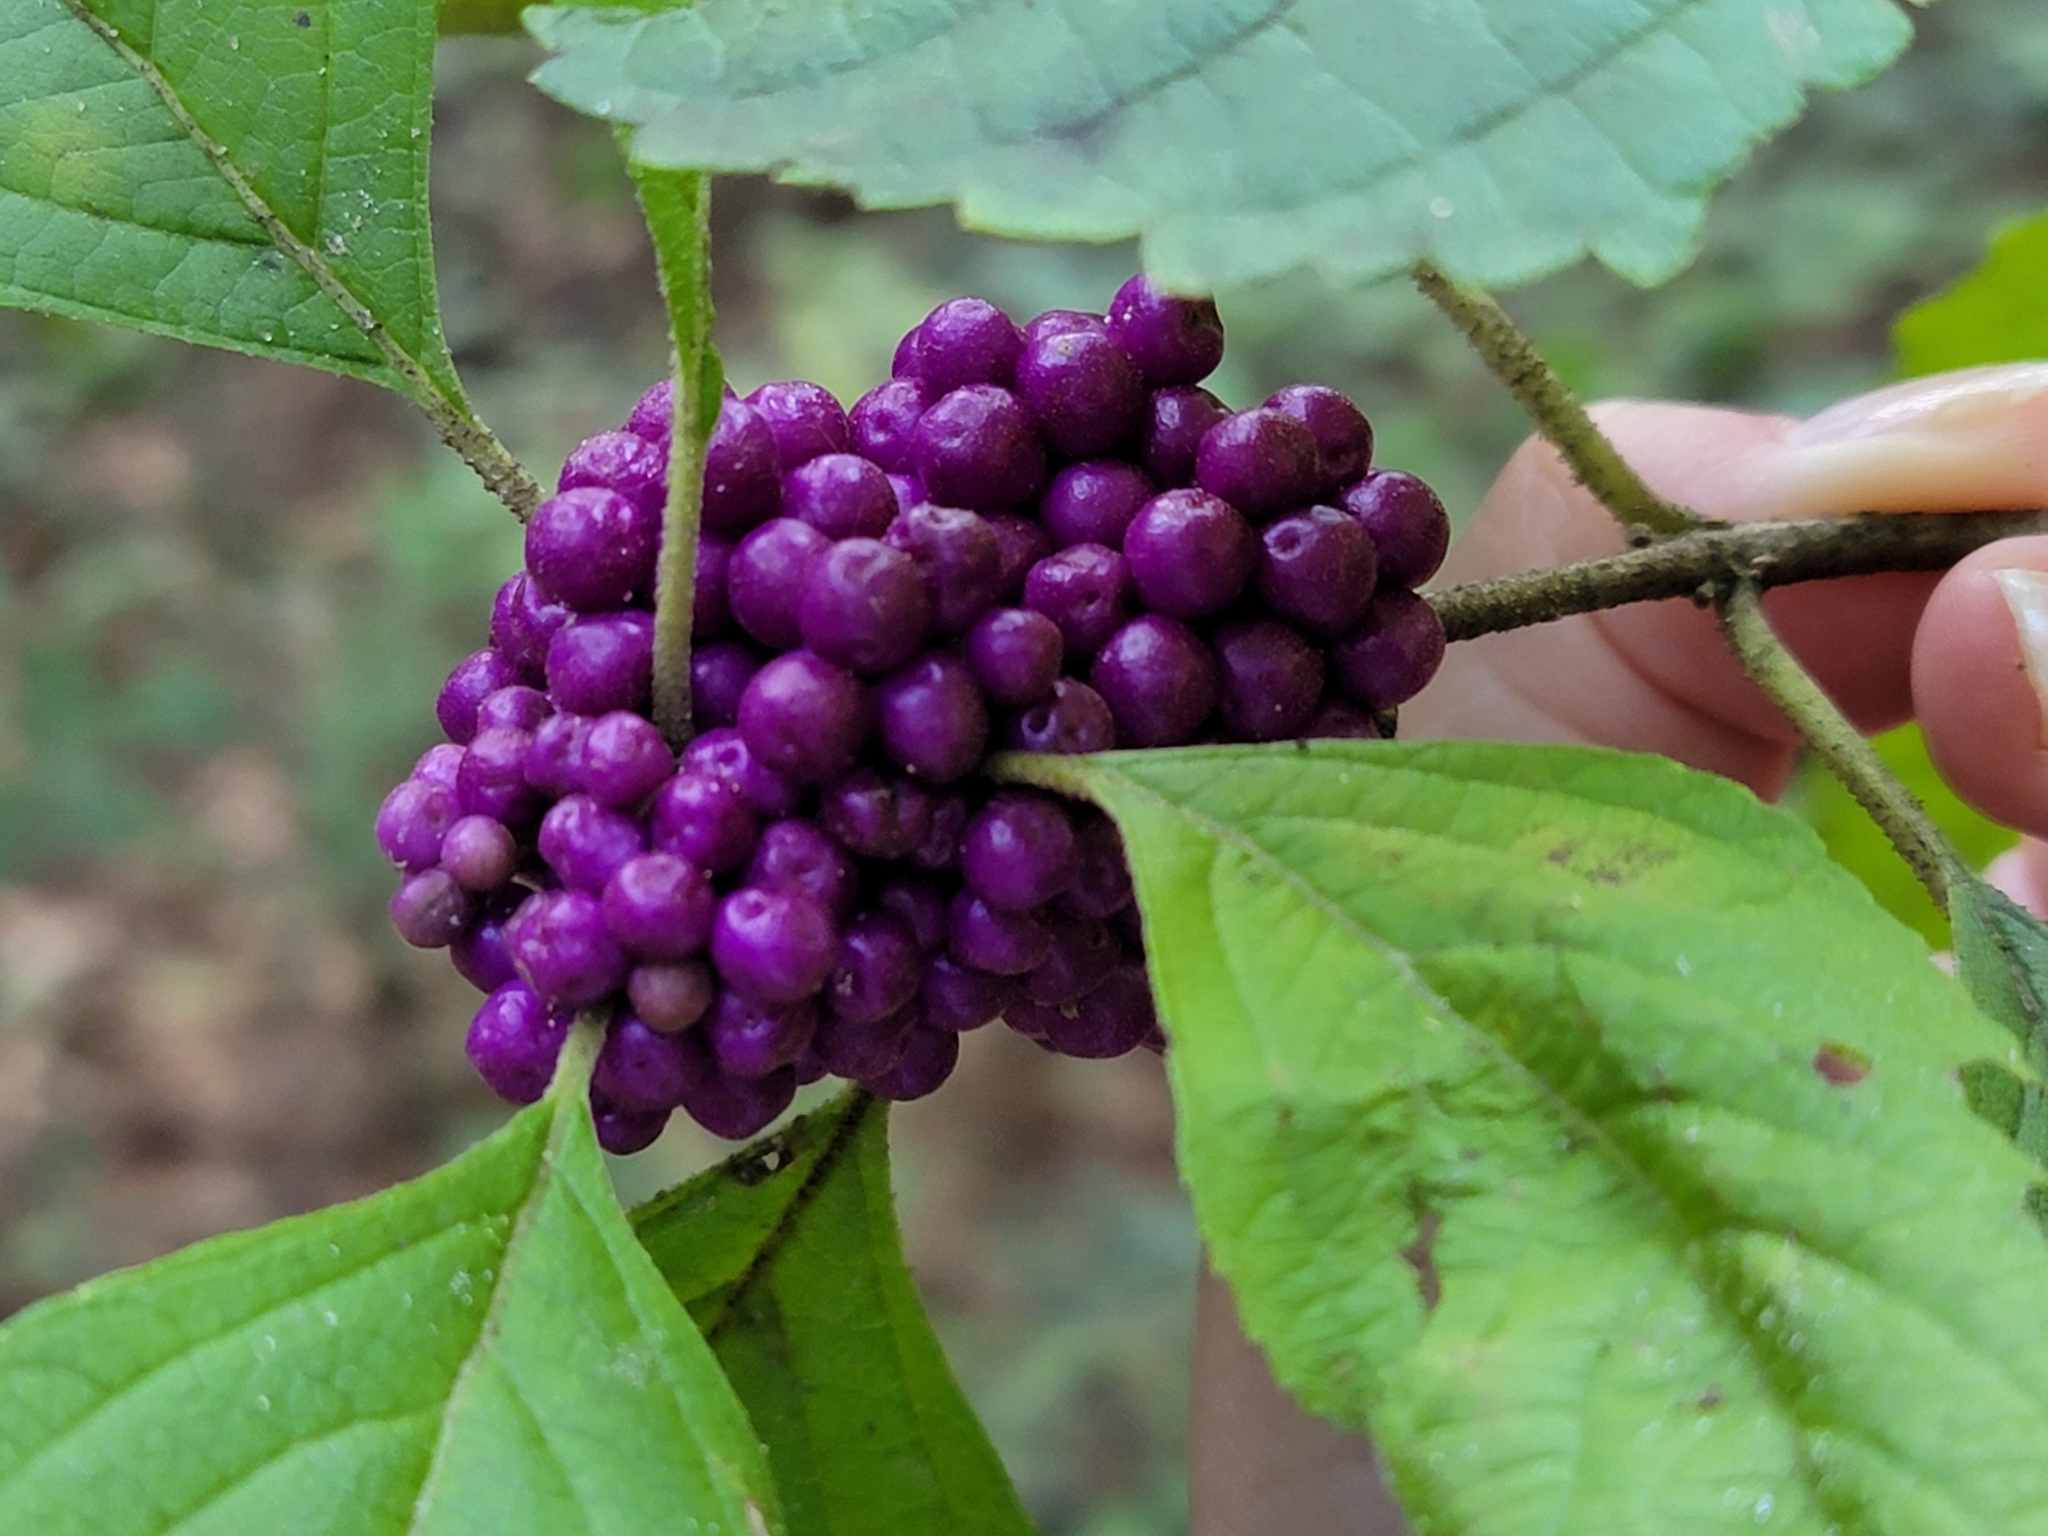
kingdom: Plantae
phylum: Tracheophyta
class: Magnoliopsida
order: Lamiales
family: Lamiaceae
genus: Callicarpa
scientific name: Callicarpa americana
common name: American beautyberry
